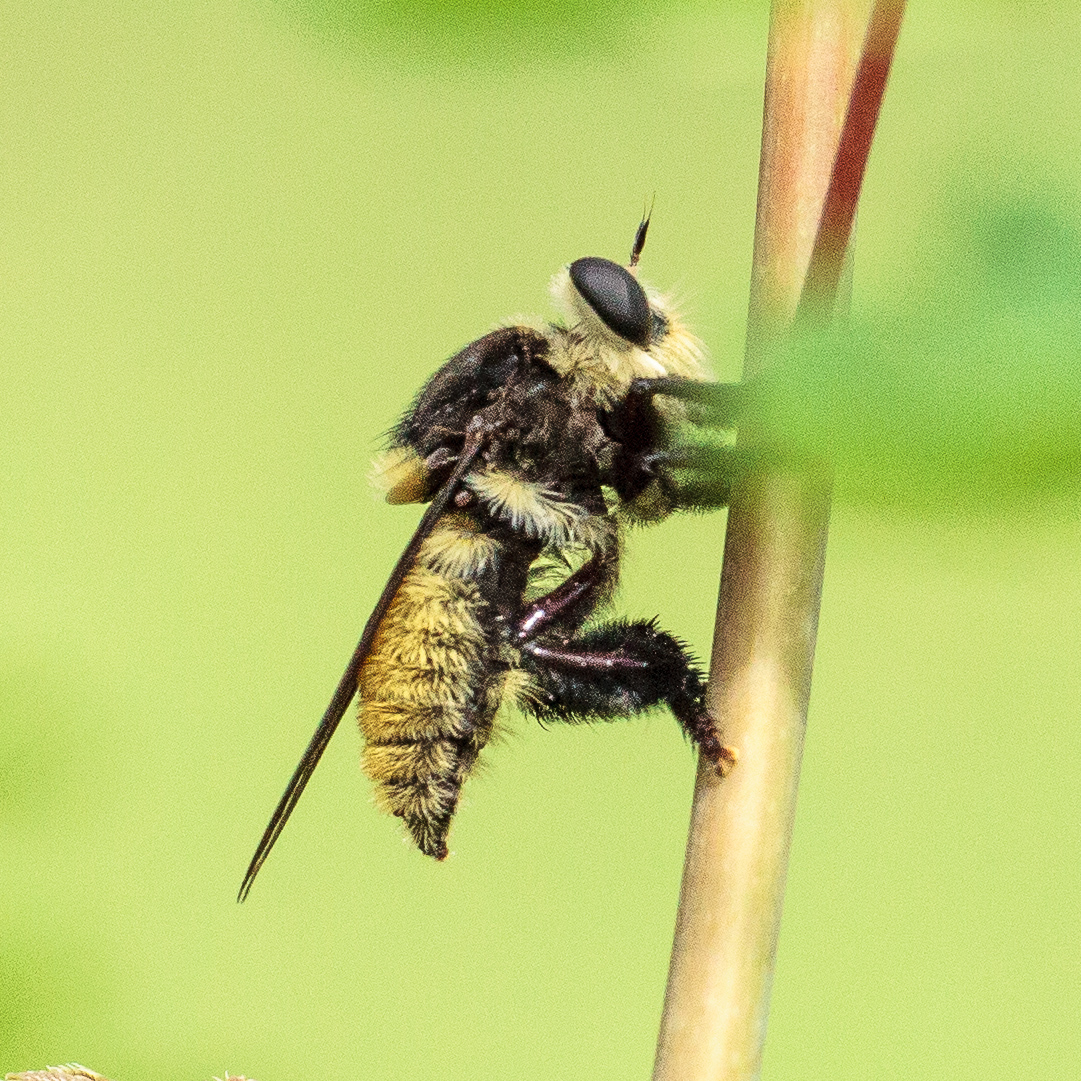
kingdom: Animalia
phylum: Arthropoda
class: Insecta
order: Diptera
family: Asilidae
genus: Mallophora
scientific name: Mallophora fautrix
